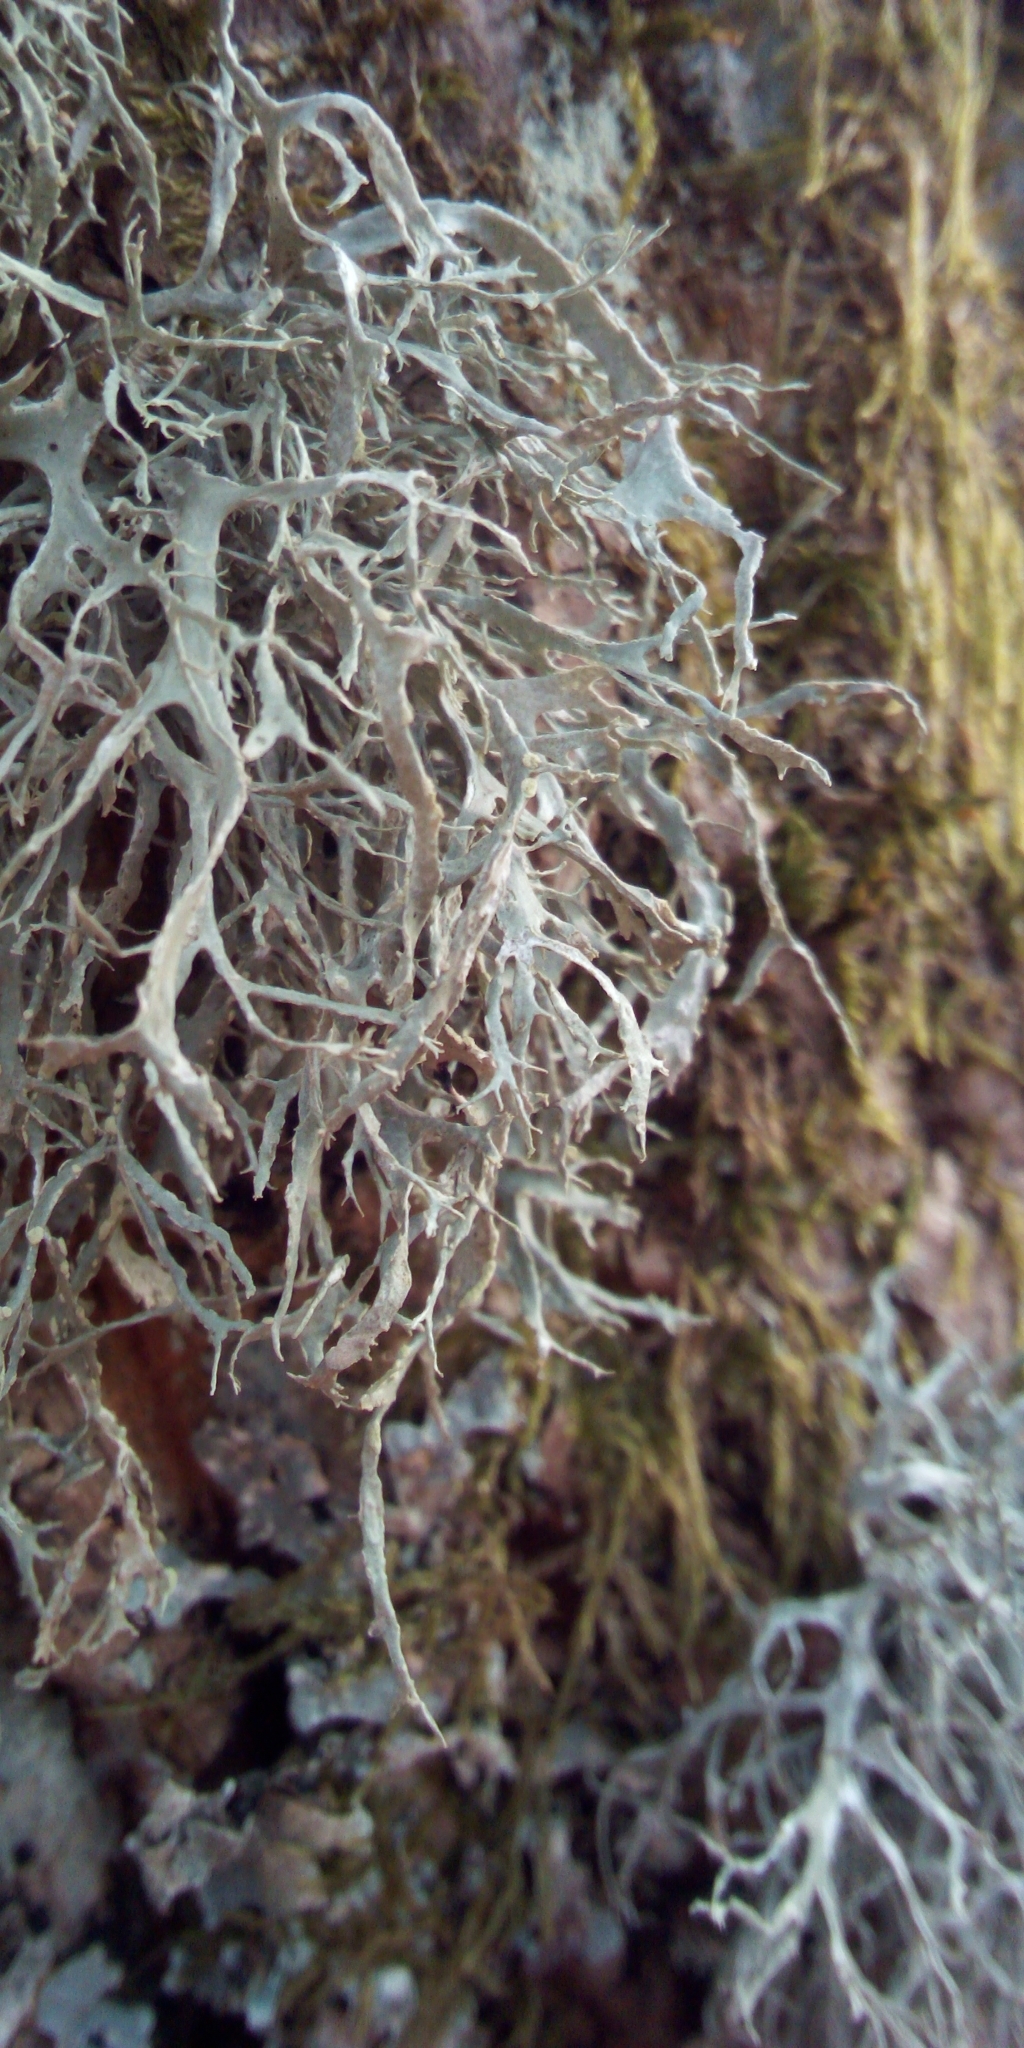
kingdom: Fungi
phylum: Ascomycota
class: Lecanoromycetes
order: Lecanorales
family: Ramalinaceae
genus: Ramalina
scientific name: Ramalina farinacea
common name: Farinose cartilage lichen
